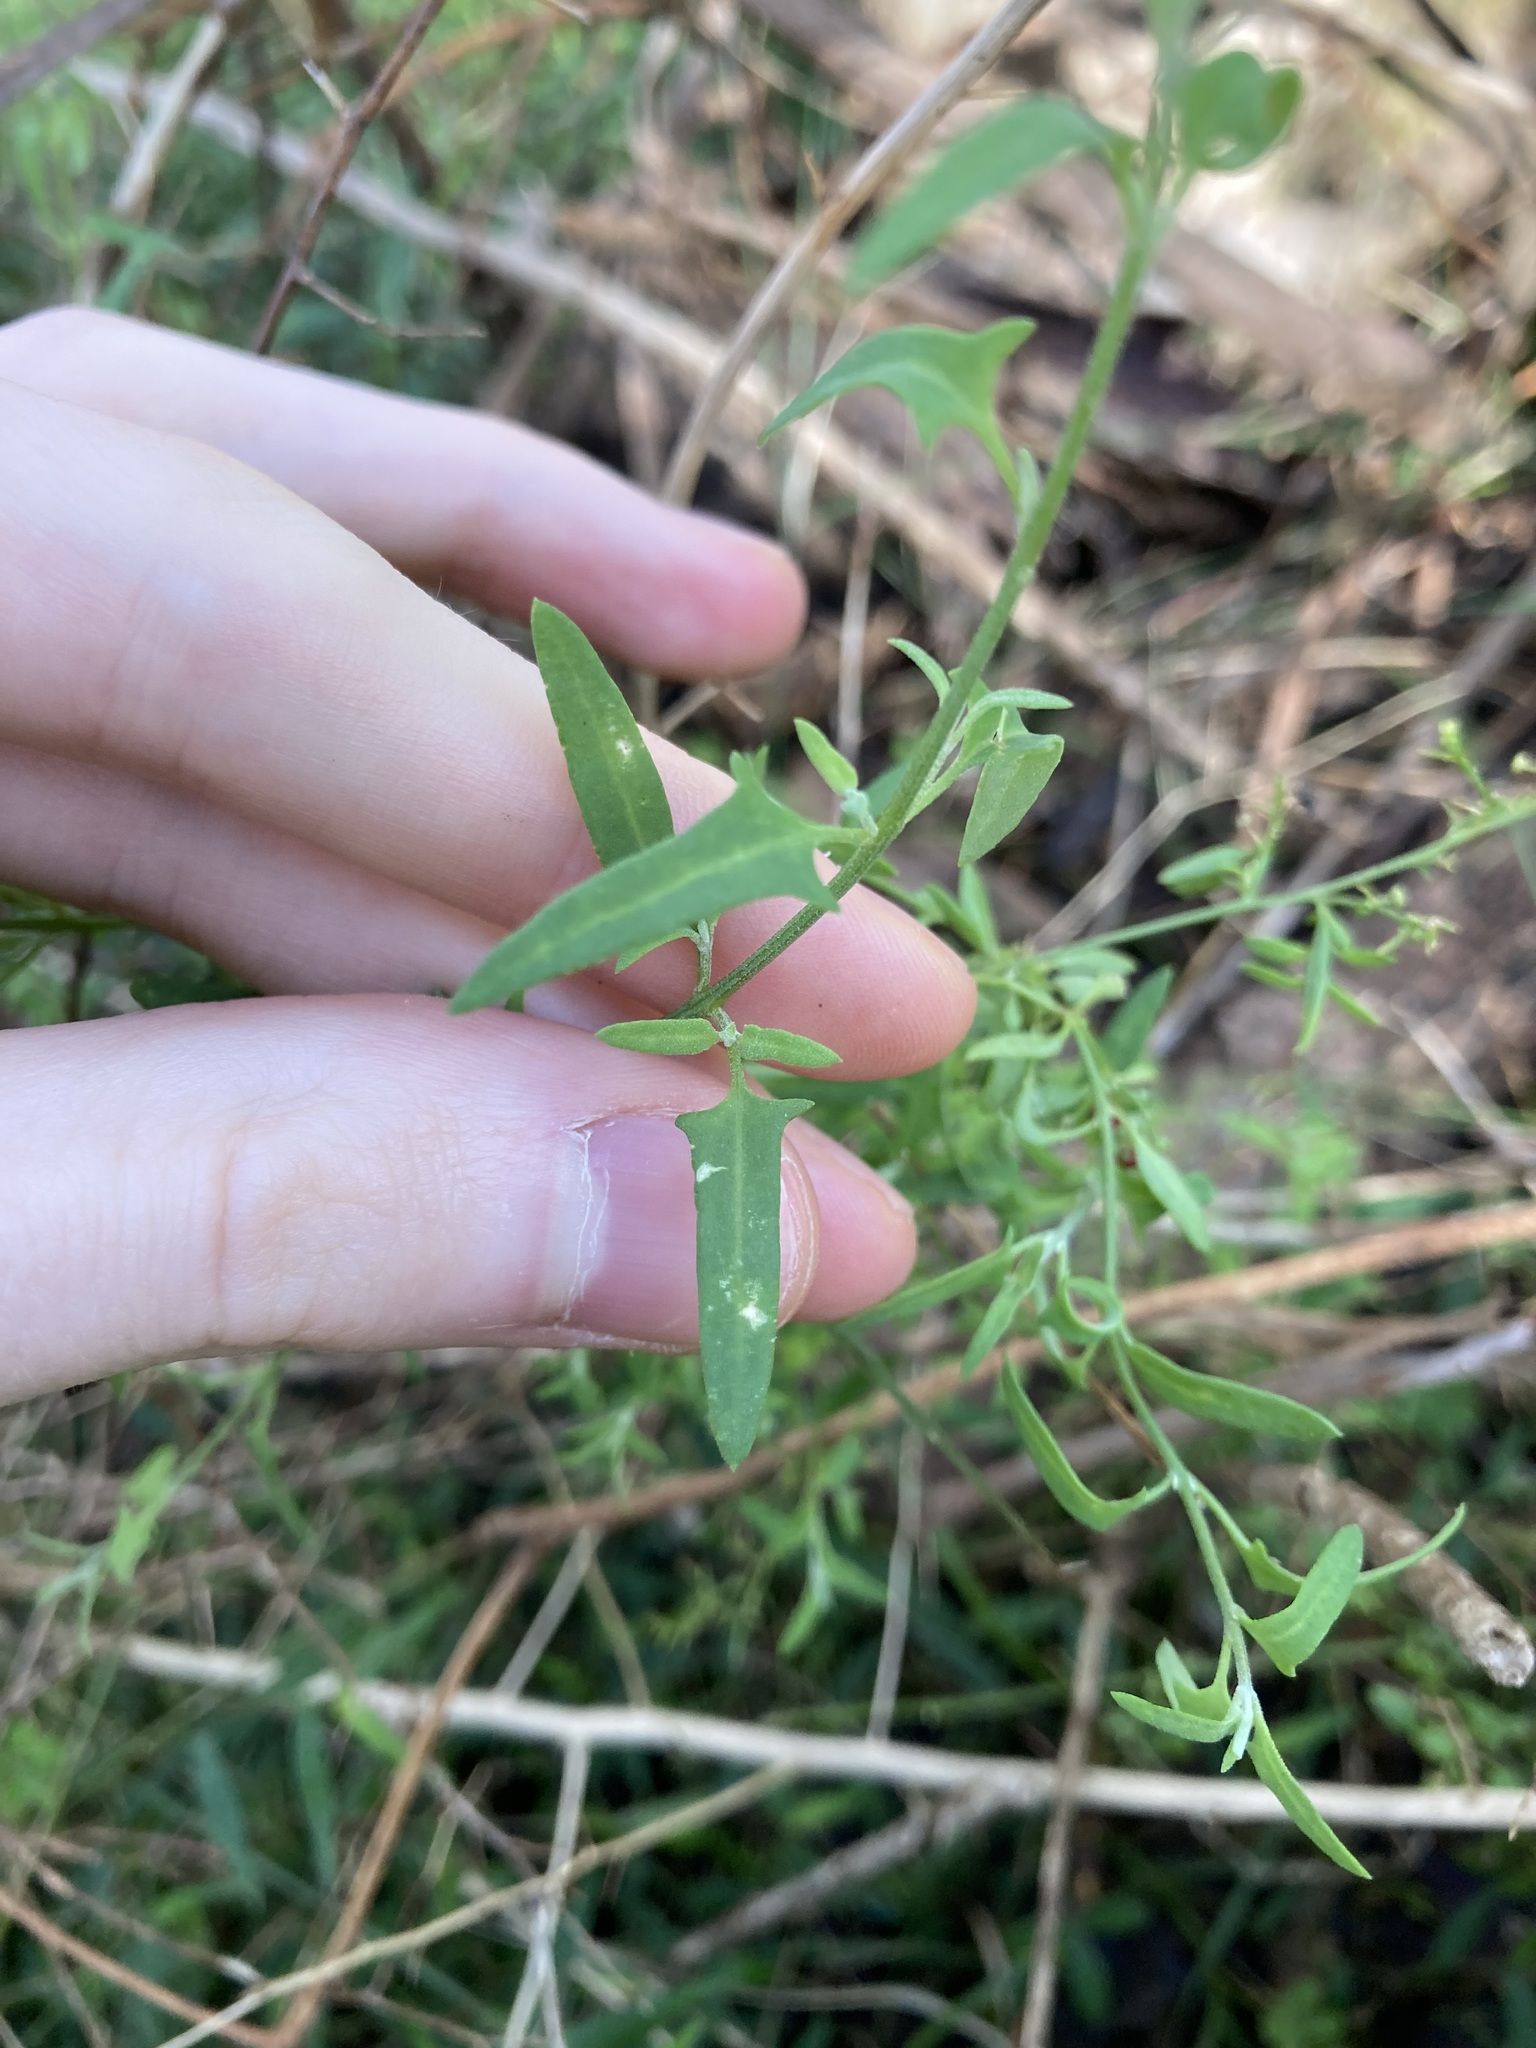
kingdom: Plantae
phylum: Tracheophyta
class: Magnoliopsida
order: Caryophyllales
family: Amaranthaceae
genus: Chenopodium
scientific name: Chenopodium nutans
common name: Climbing-saltbush
